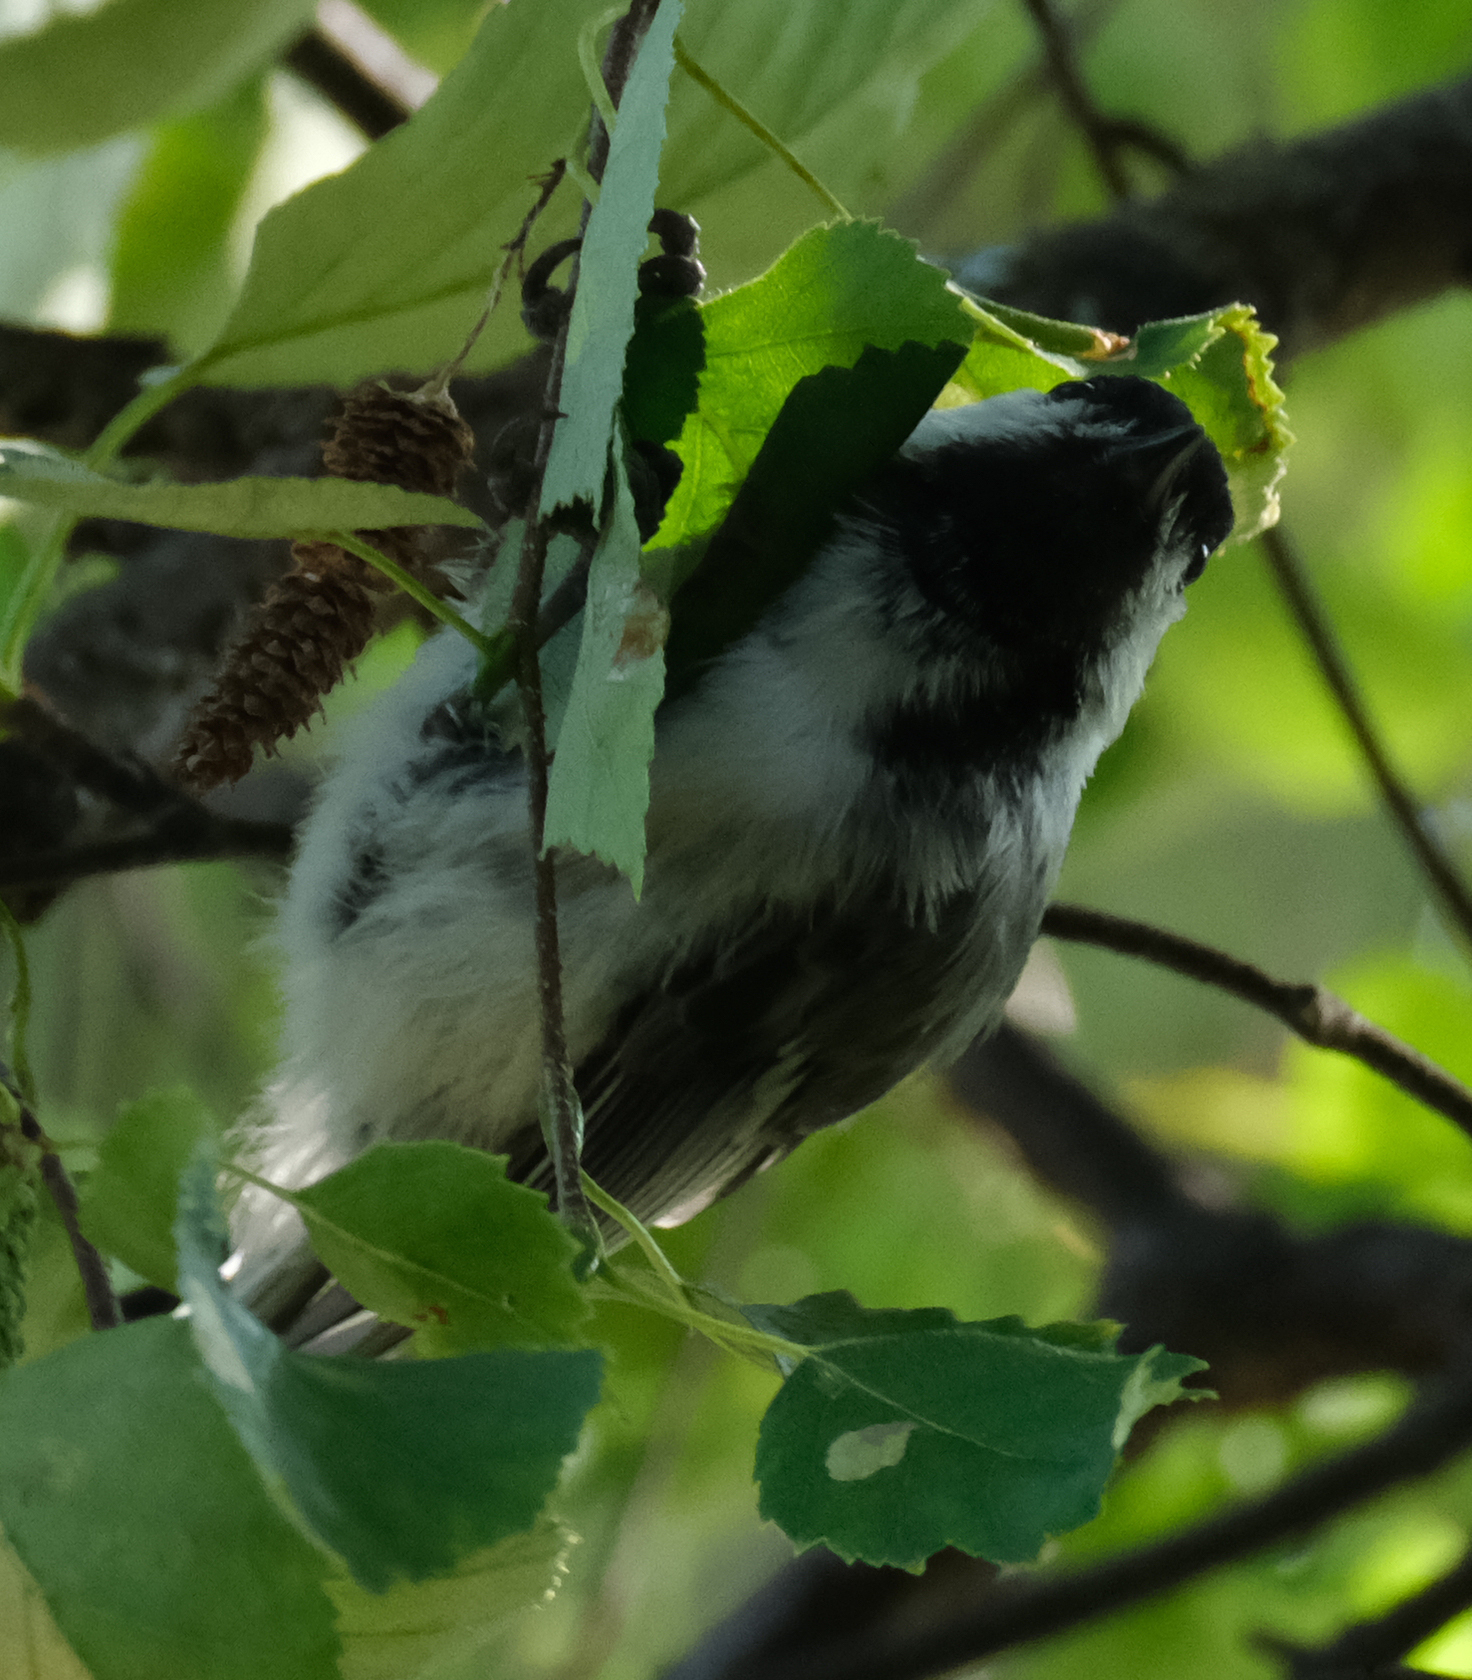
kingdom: Animalia
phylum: Chordata
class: Aves
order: Passeriformes
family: Paridae
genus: Poecile
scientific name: Poecile atricapillus
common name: Black-capped chickadee
